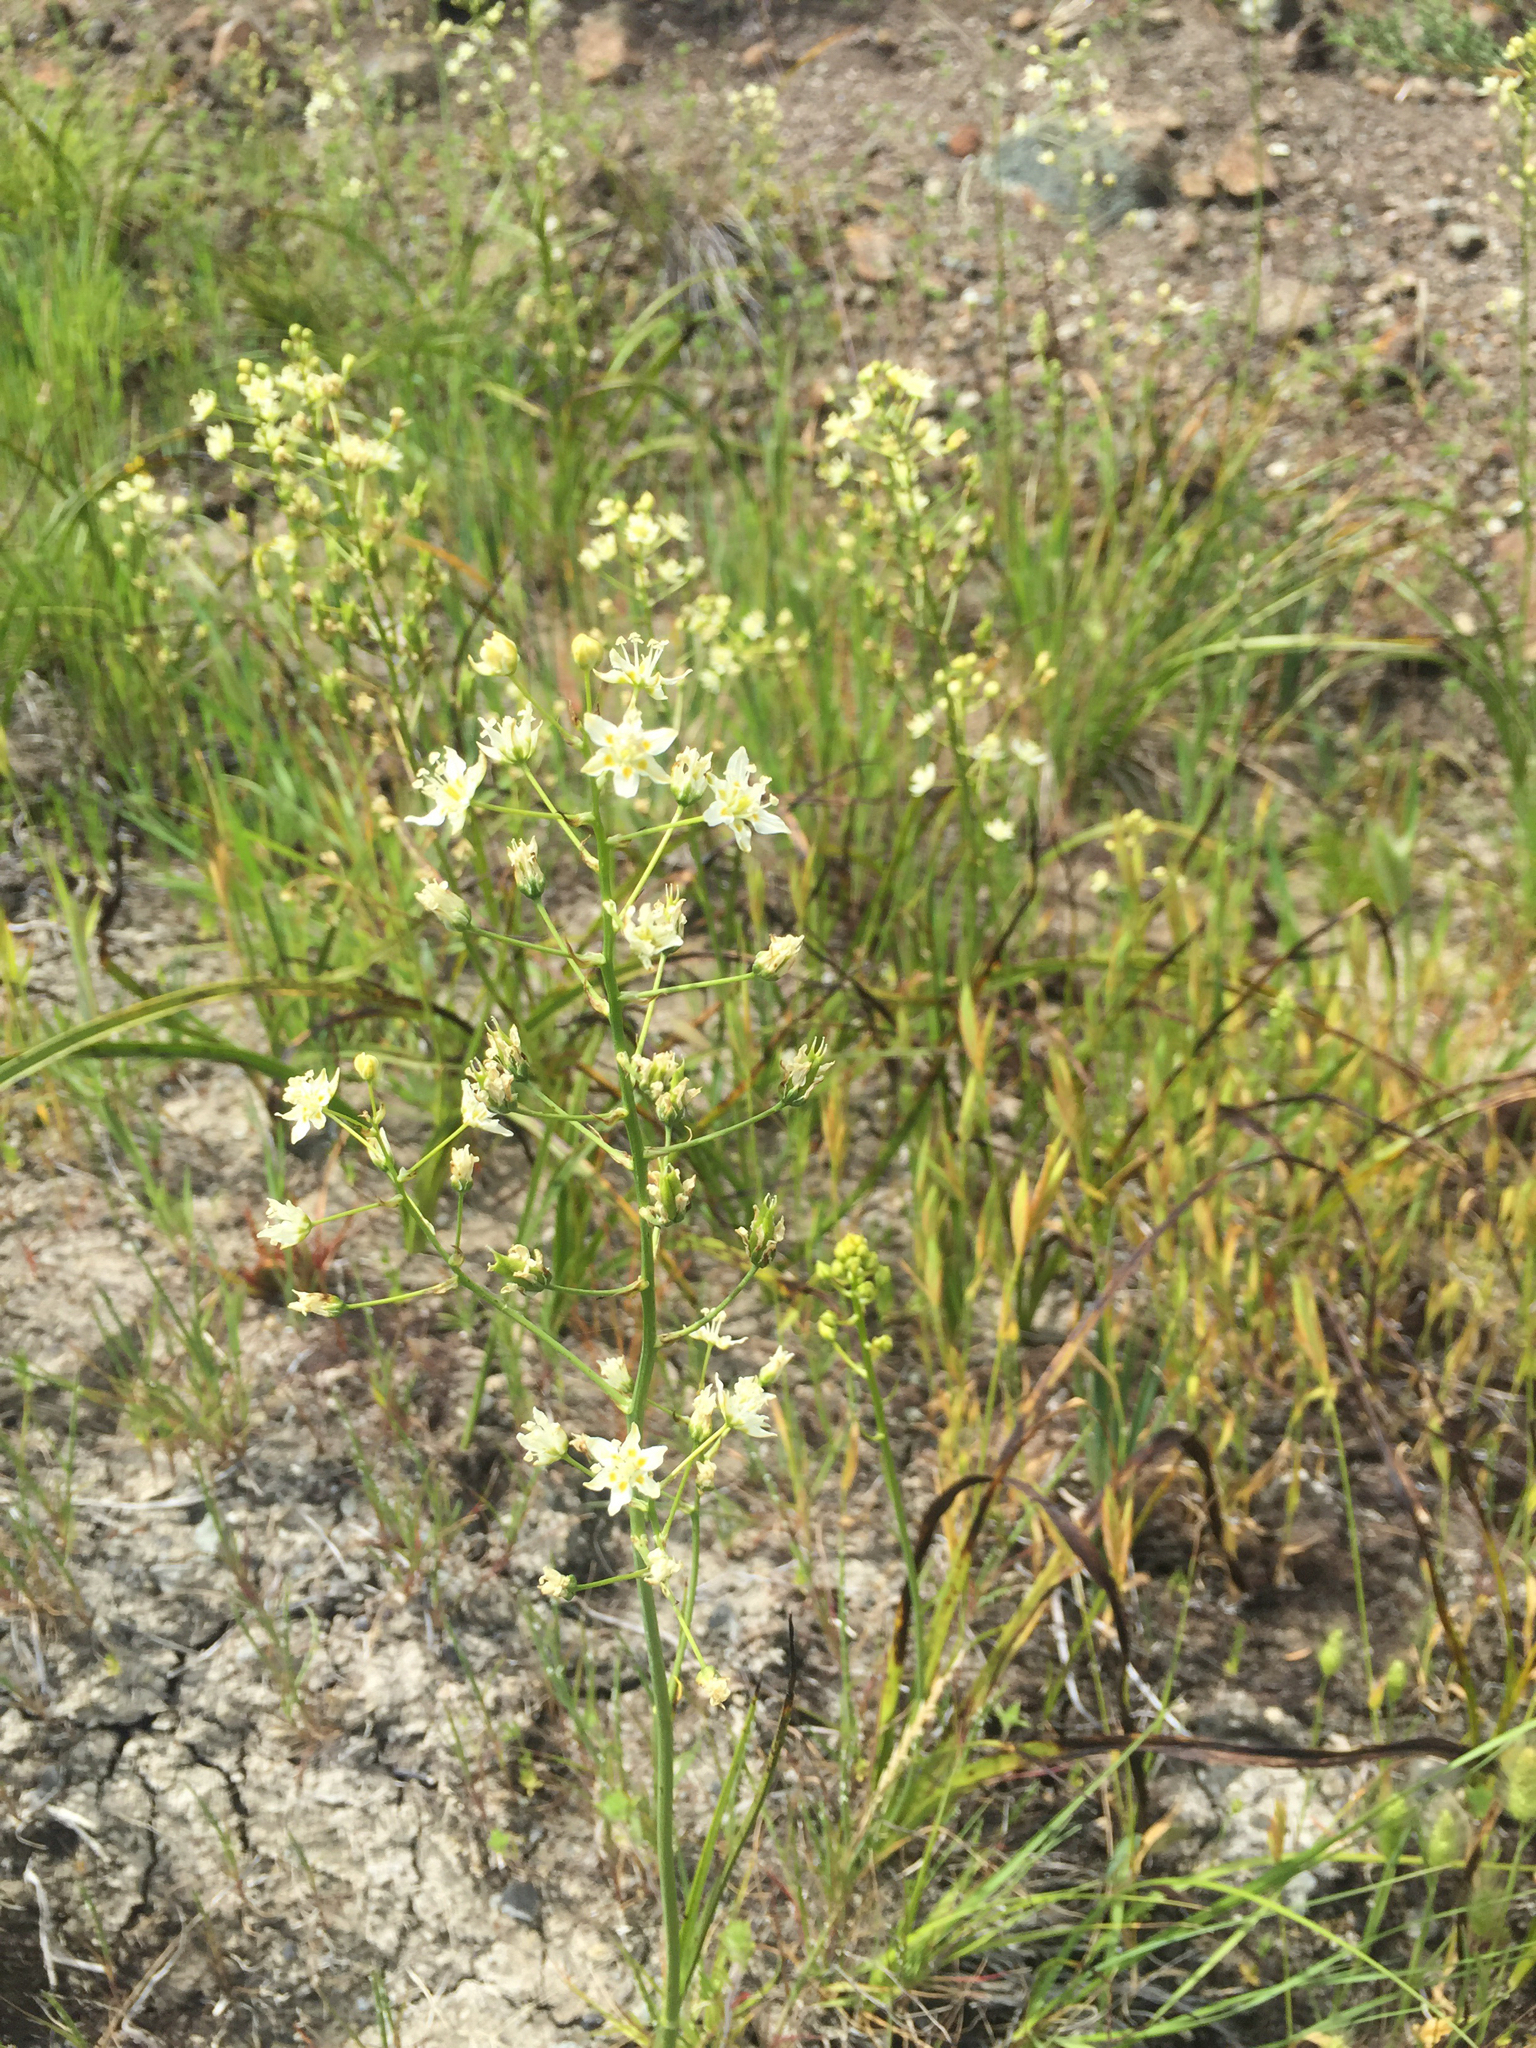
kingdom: Plantae
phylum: Tracheophyta
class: Liliopsida
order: Liliales
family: Melanthiaceae
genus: Toxicoscordion
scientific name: Toxicoscordion fontanum
